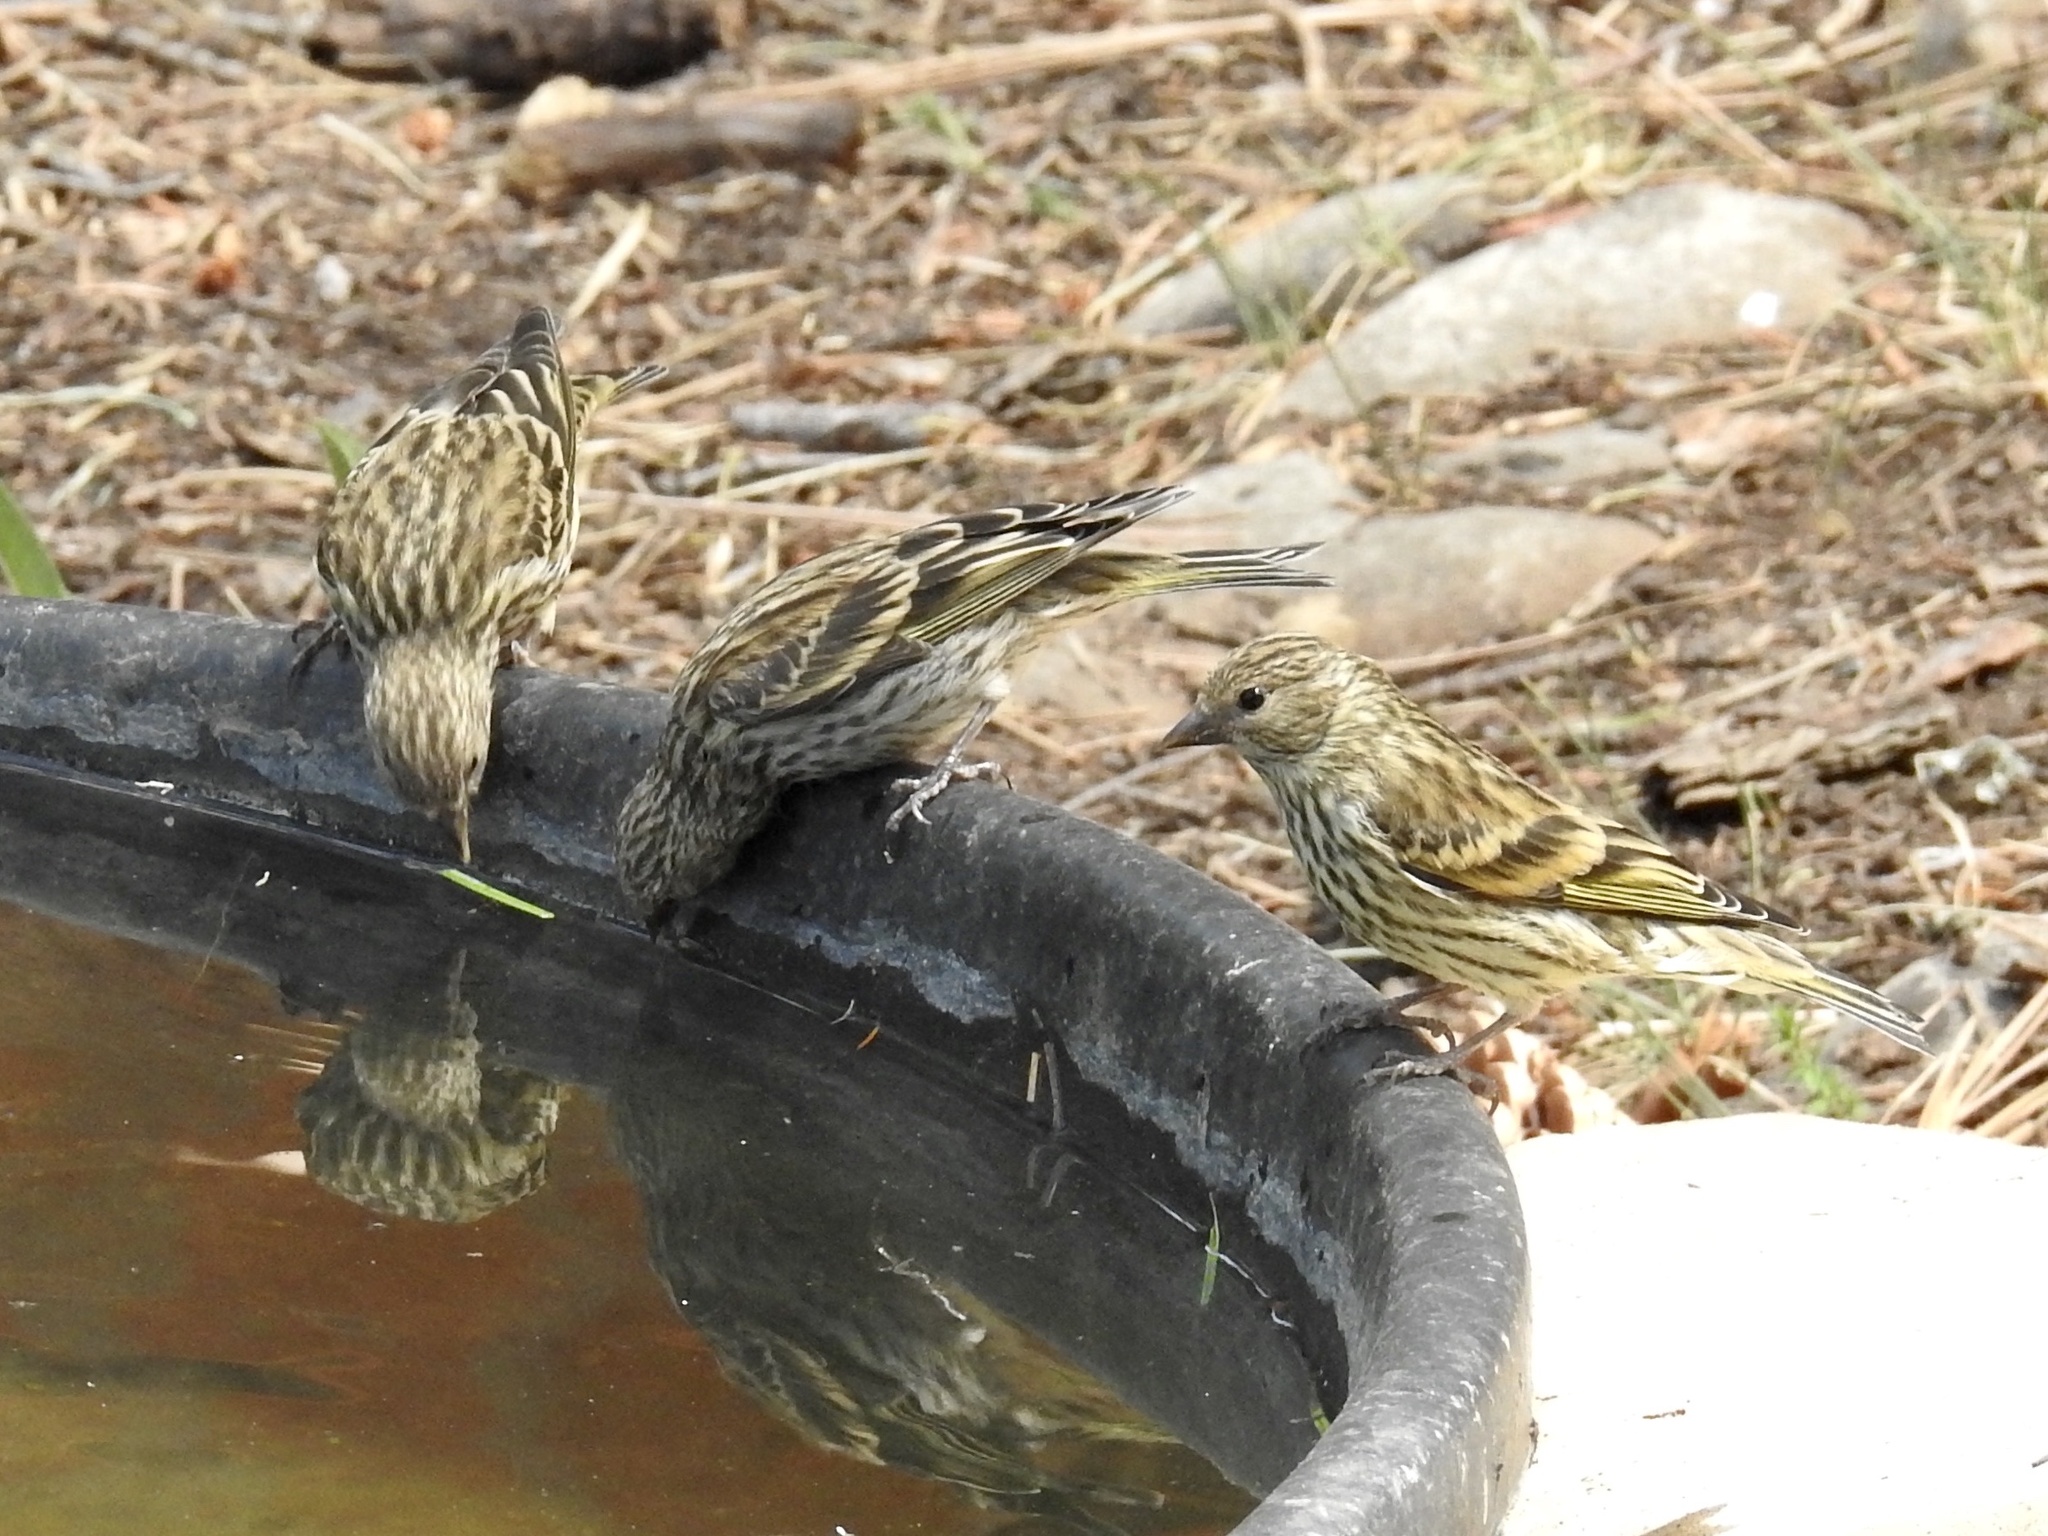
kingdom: Animalia
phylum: Chordata
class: Aves
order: Passeriformes
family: Fringillidae
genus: Spinus
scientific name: Spinus pinus
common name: Pine siskin
